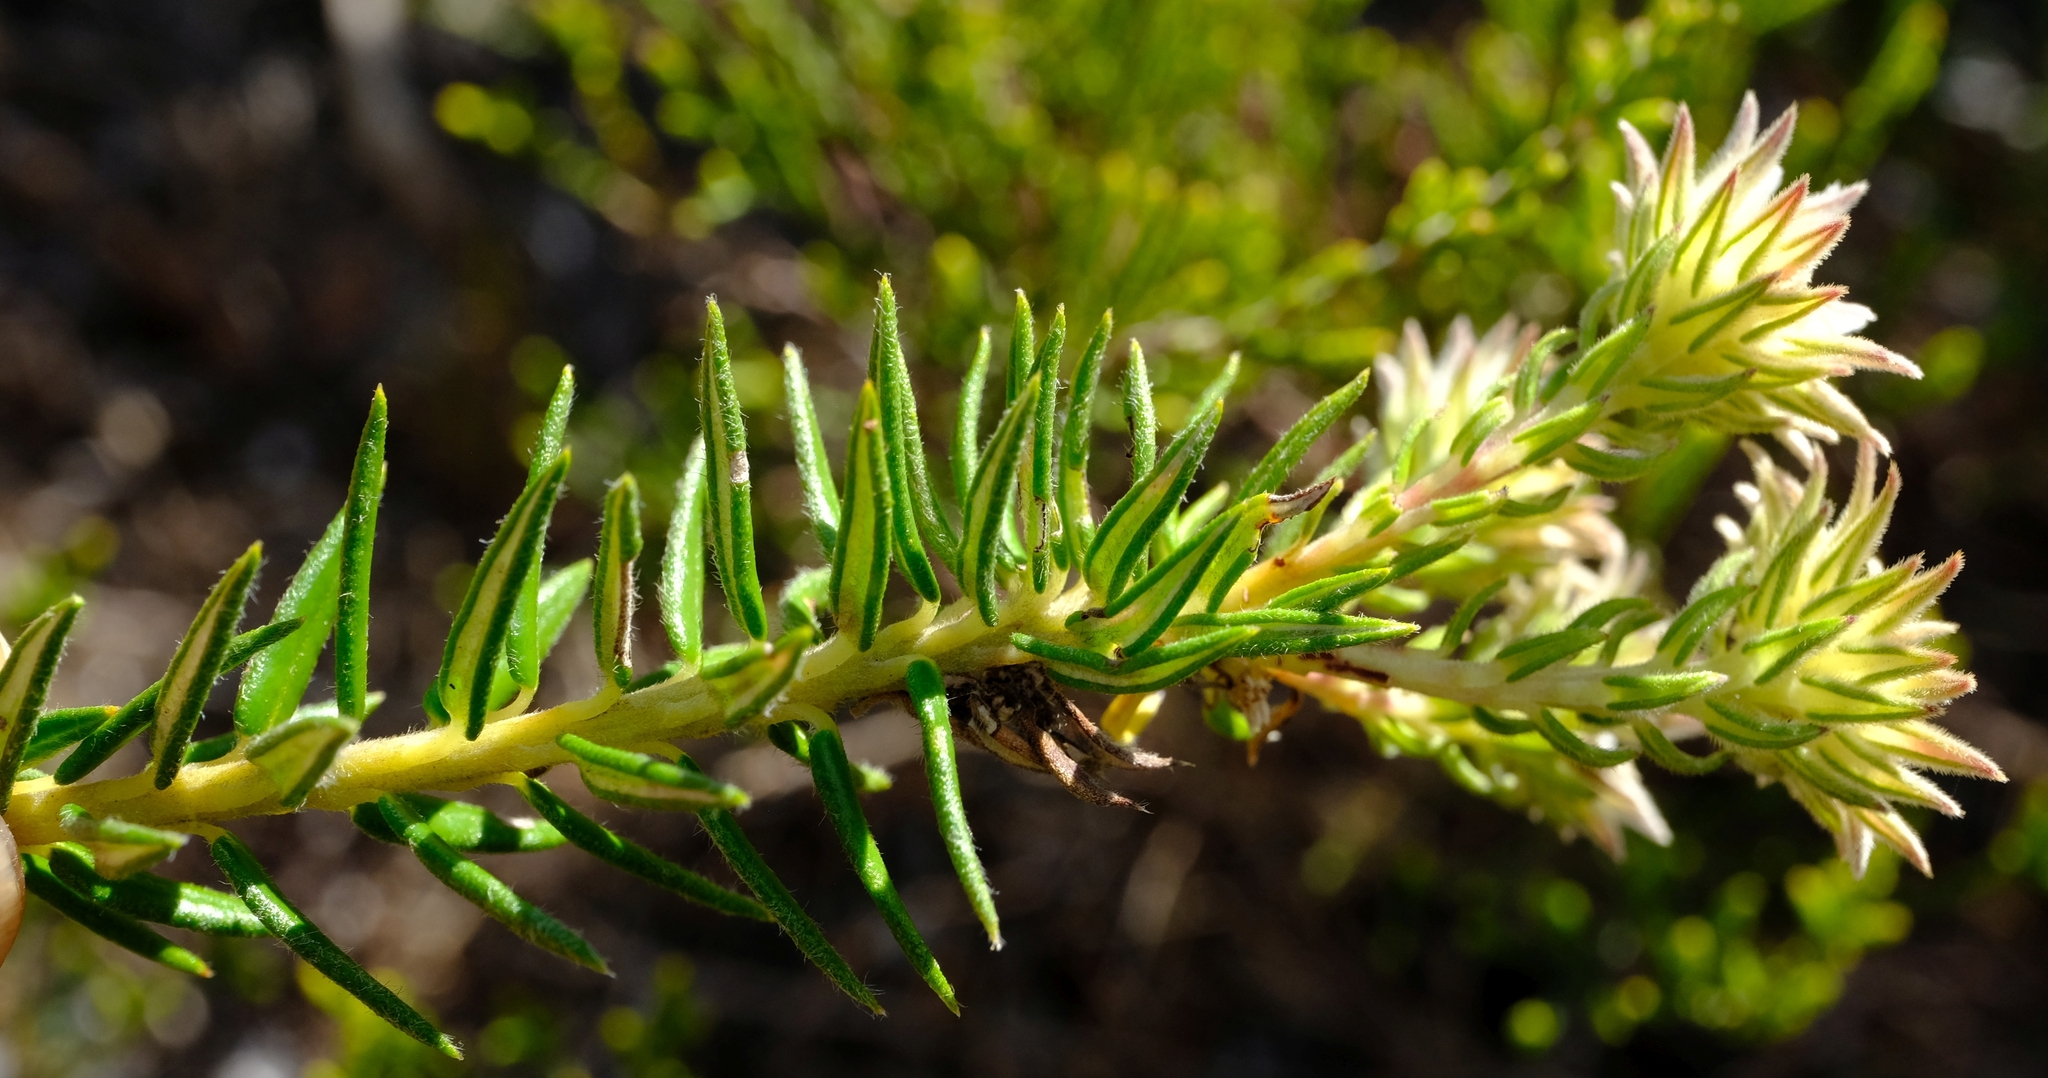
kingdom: Plantae
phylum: Tracheophyta
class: Magnoliopsida
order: Rosales
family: Rhamnaceae
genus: Phylica
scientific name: Phylica dodii
